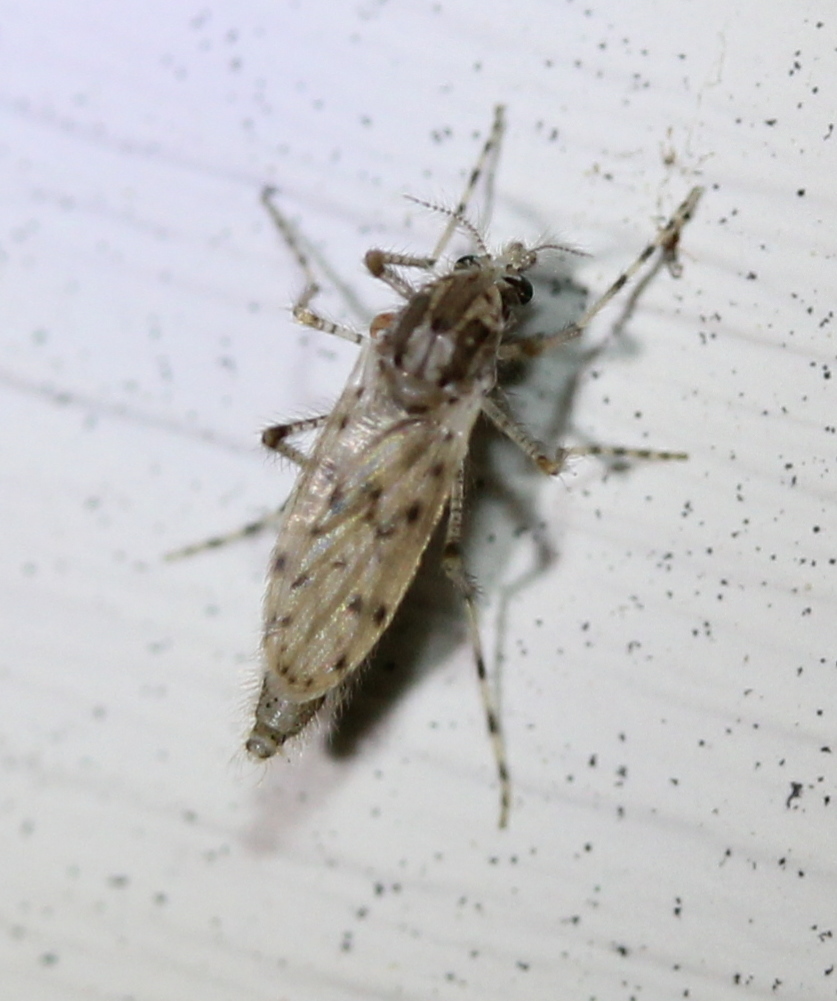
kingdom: Animalia
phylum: Arthropoda
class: Insecta
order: Diptera
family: Chaoboridae
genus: Chaoborus
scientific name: Chaoborus punctipennis
